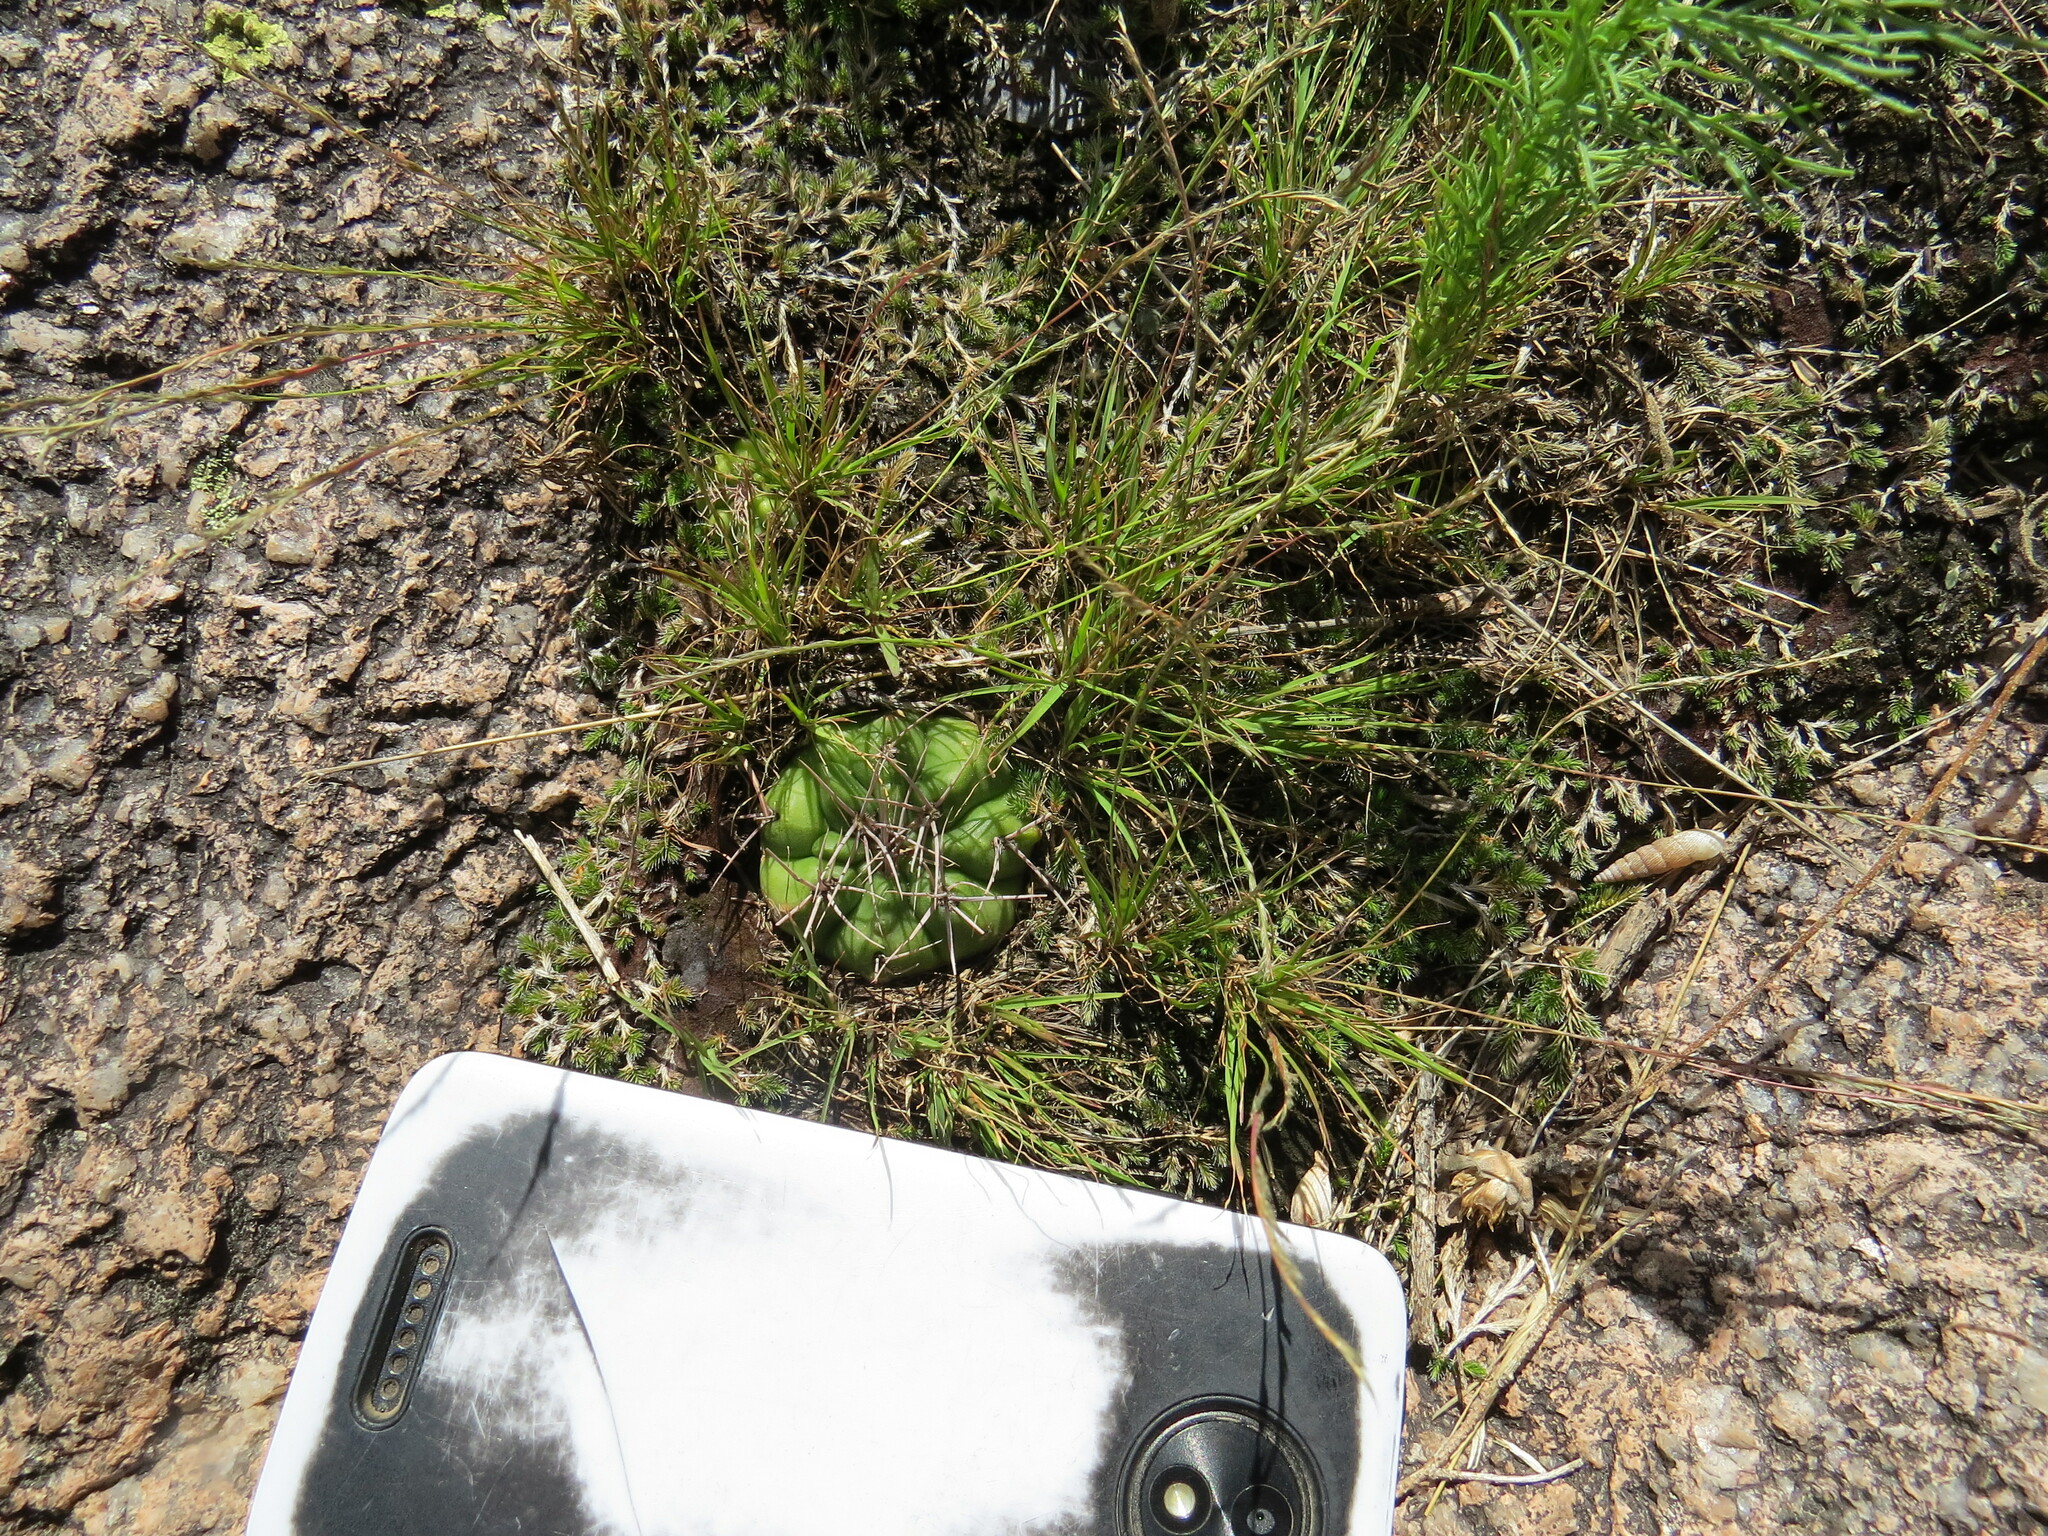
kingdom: Plantae
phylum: Tracheophyta
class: Magnoliopsida
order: Caryophyllales
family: Cactaceae
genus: Gymnocalycium
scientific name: Gymnocalycium mostii
